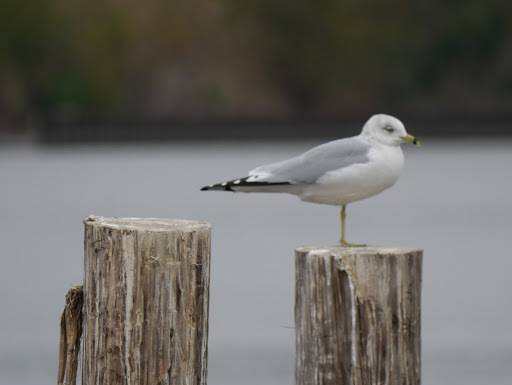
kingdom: Animalia
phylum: Chordata
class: Aves
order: Charadriiformes
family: Laridae
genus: Larus
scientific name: Larus delawarensis
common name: Ring-billed gull
